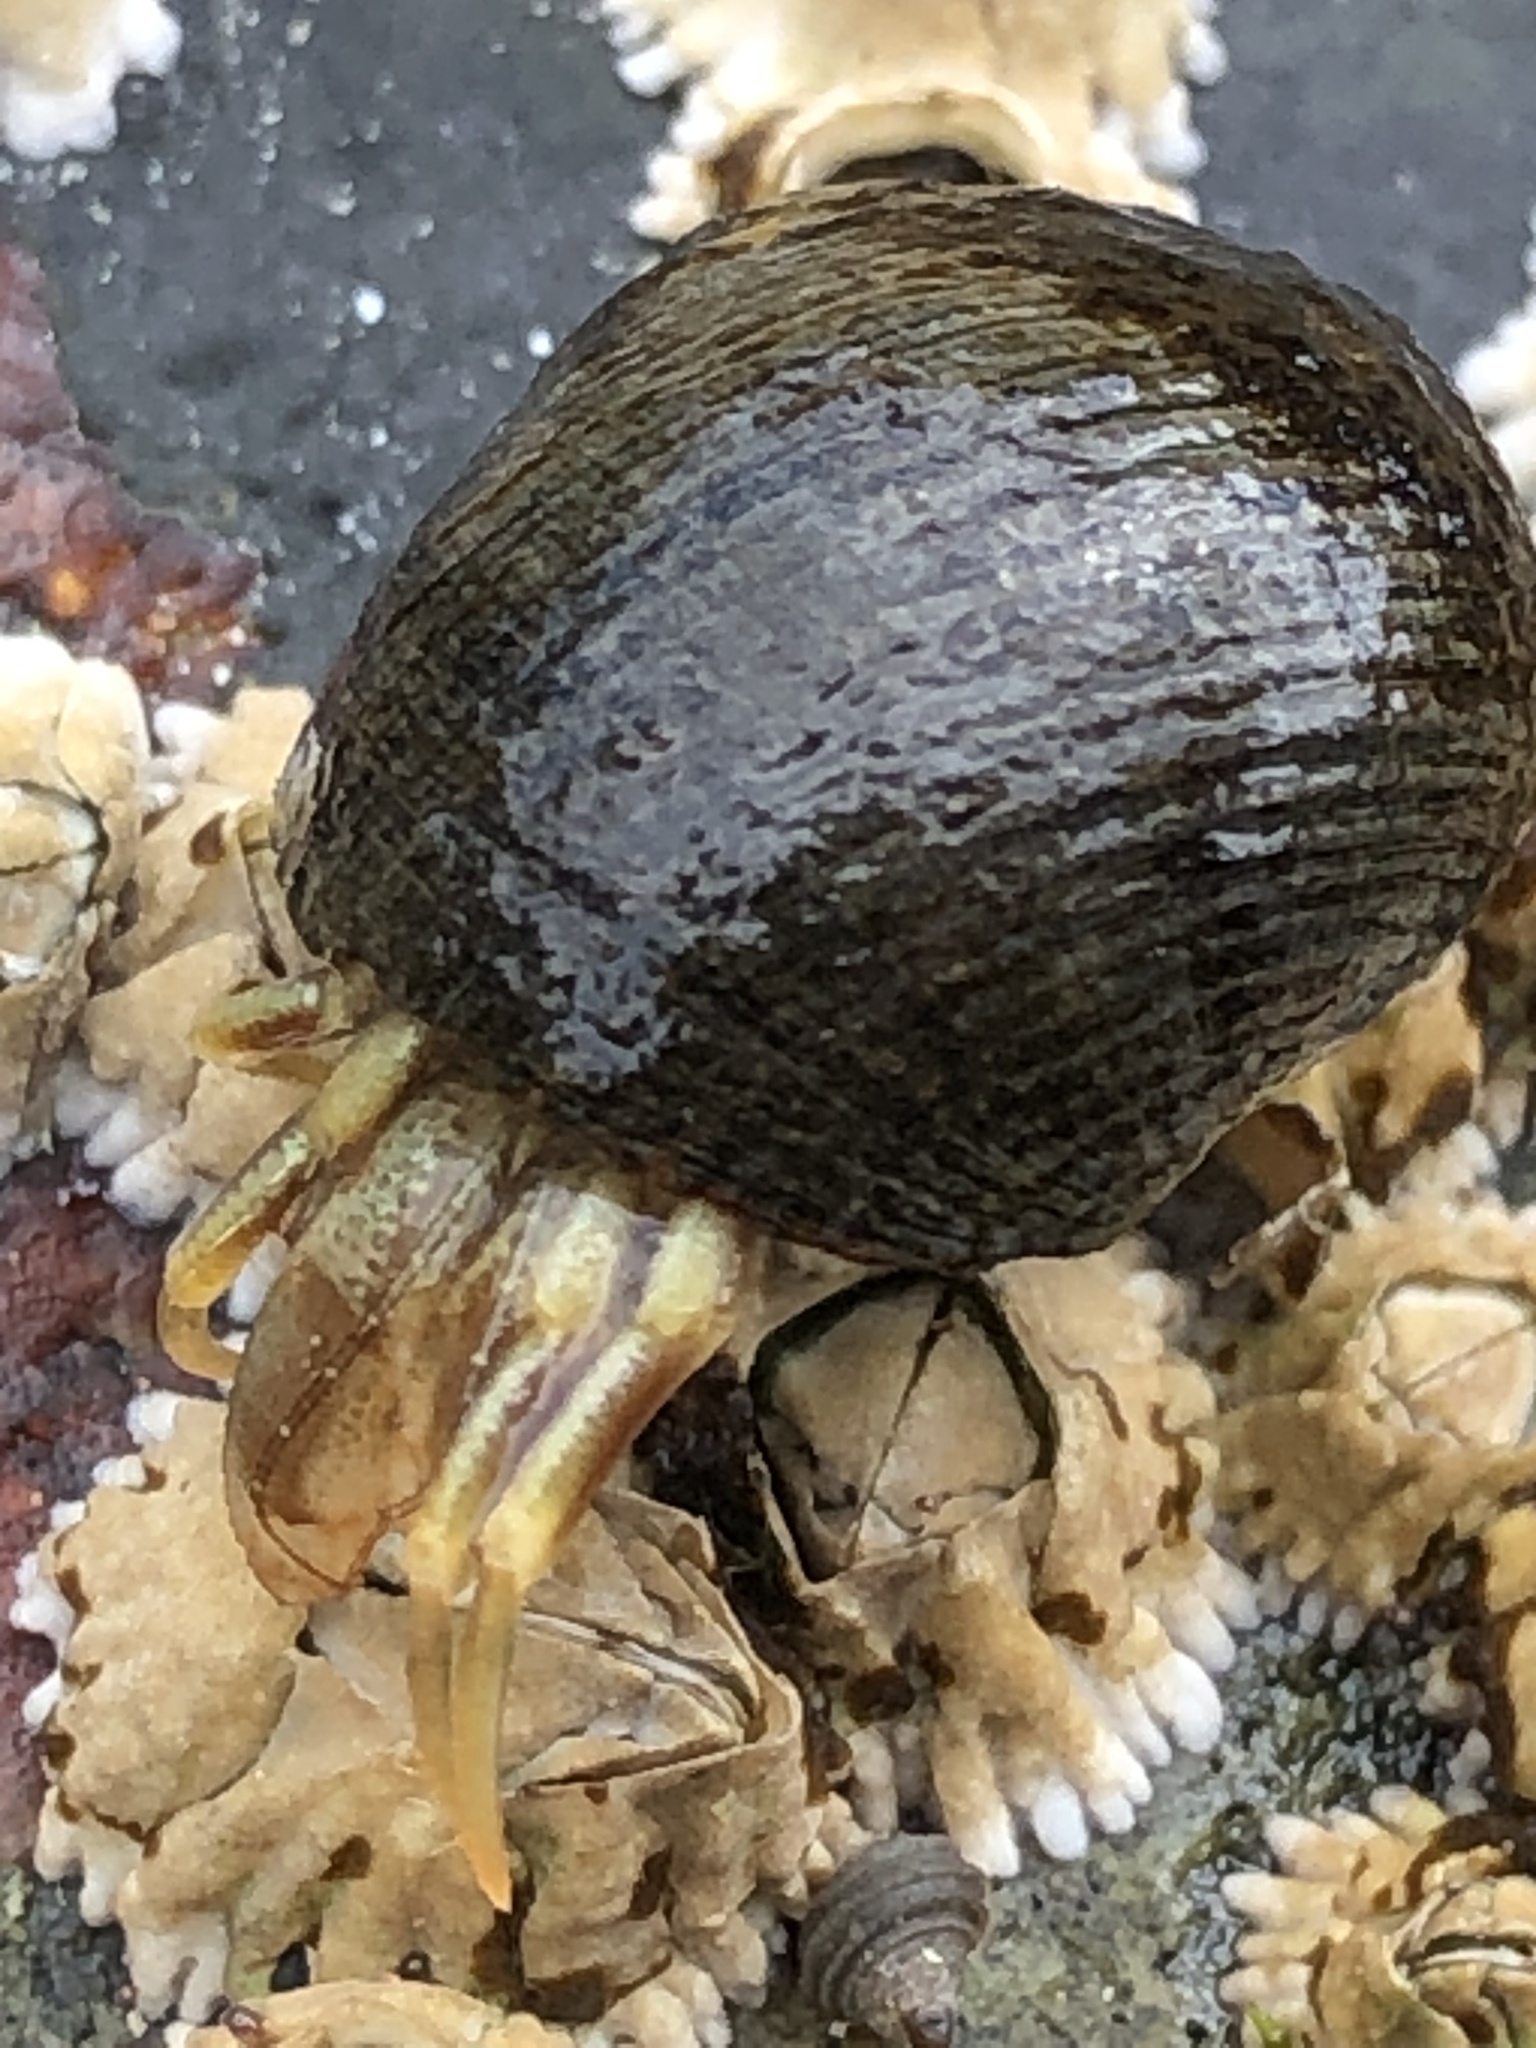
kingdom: Animalia
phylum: Arthropoda
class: Malacostraca
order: Decapoda
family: Paguridae
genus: Pagurus
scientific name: Pagurus longicarpus
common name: Long-armed hermit crab
